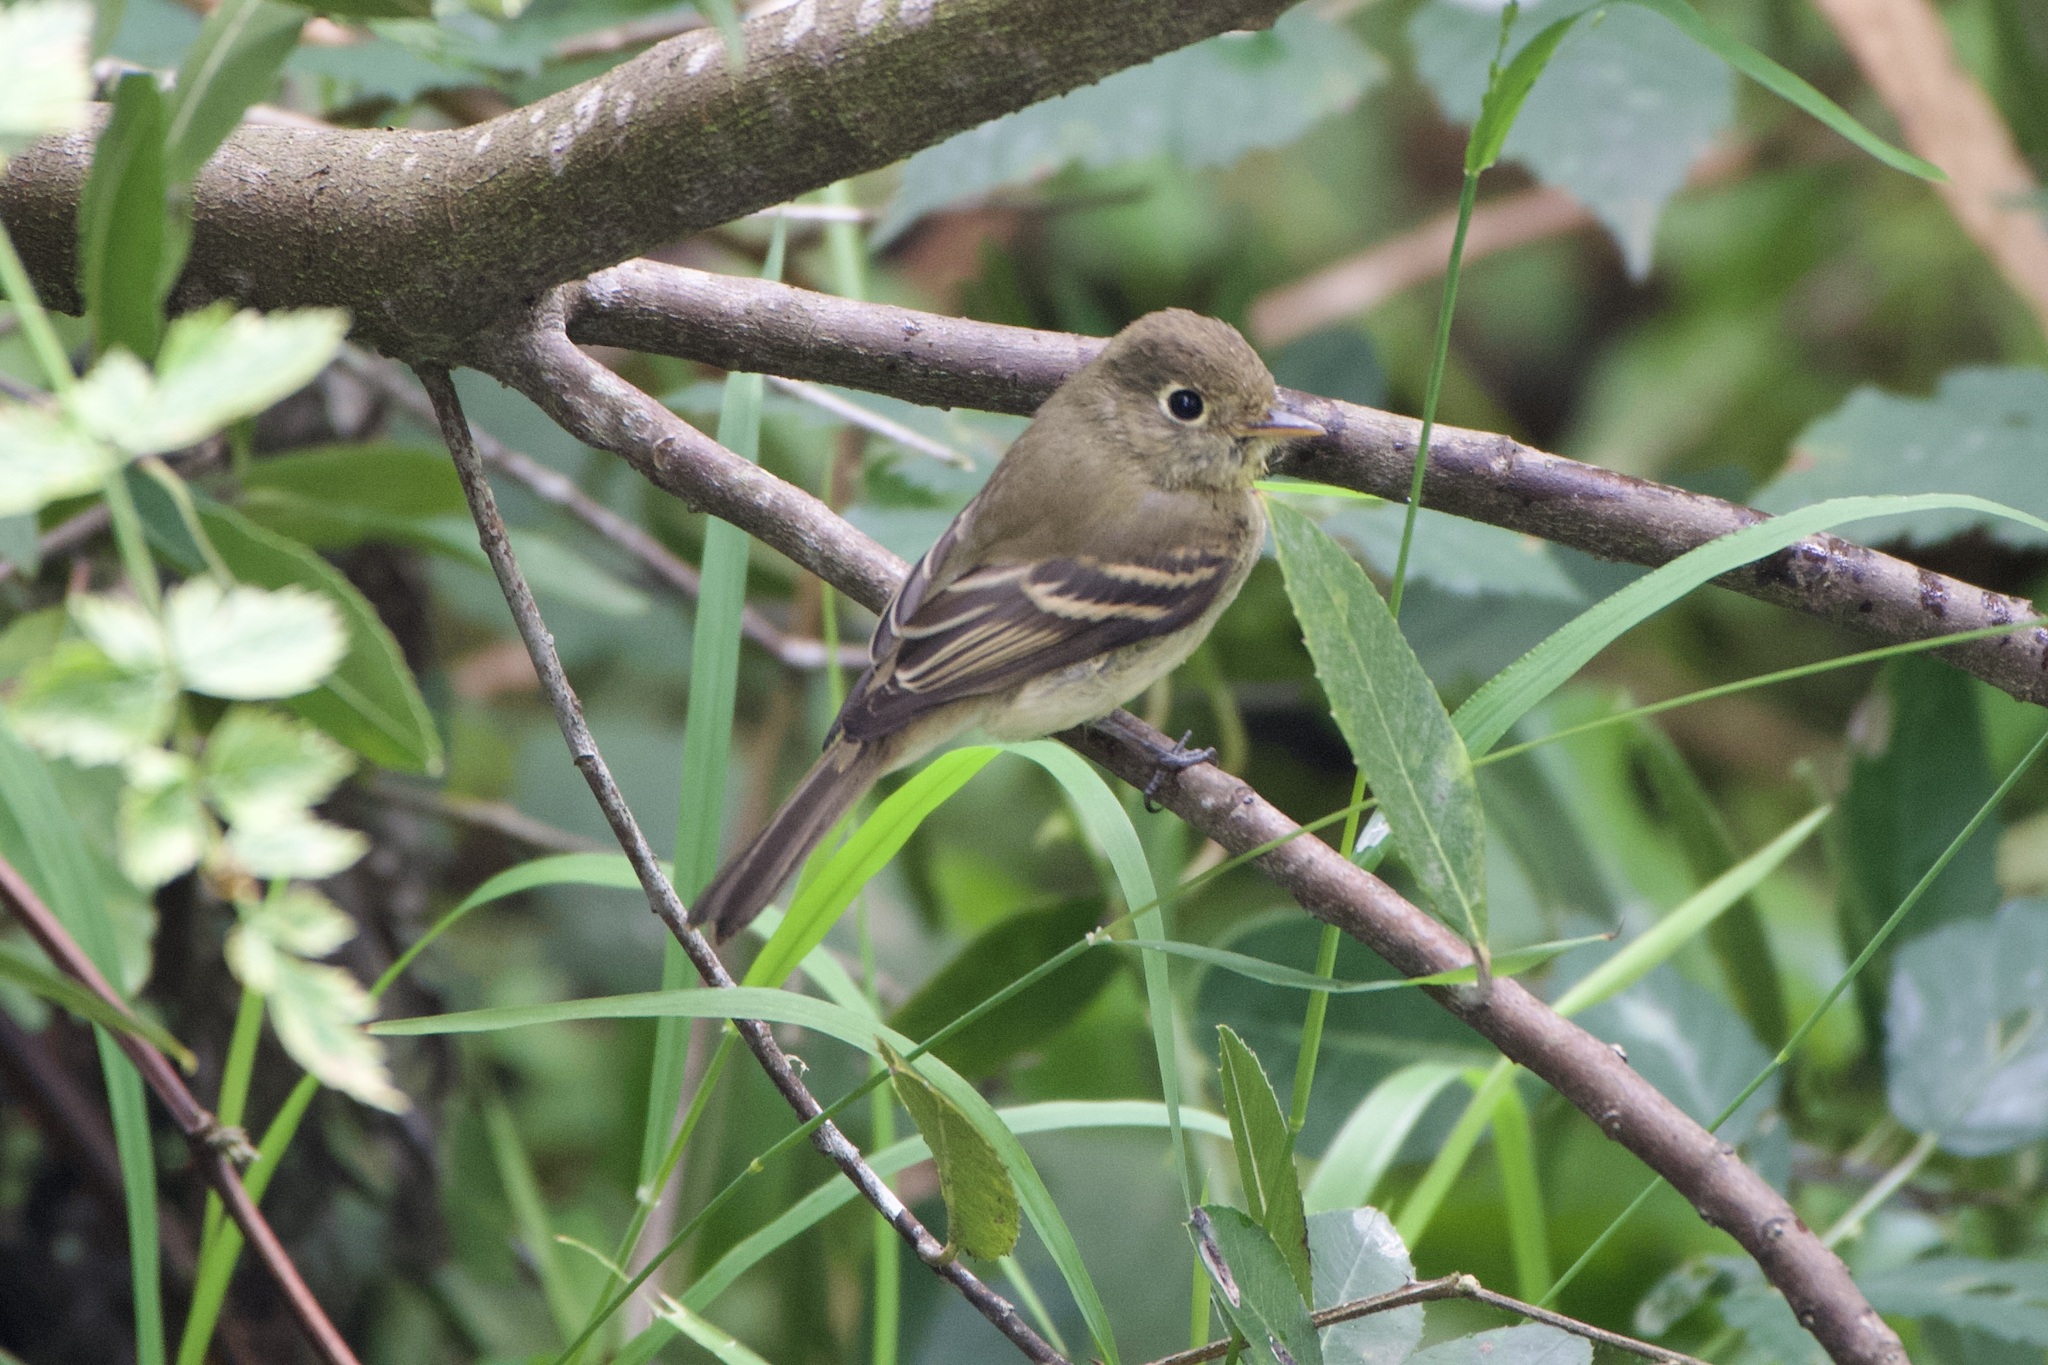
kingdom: Animalia
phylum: Chordata
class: Aves
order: Passeriformes
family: Tyrannidae
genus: Empidonax
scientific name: Empidonax difficilis
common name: Pacific-slope flycatcher
